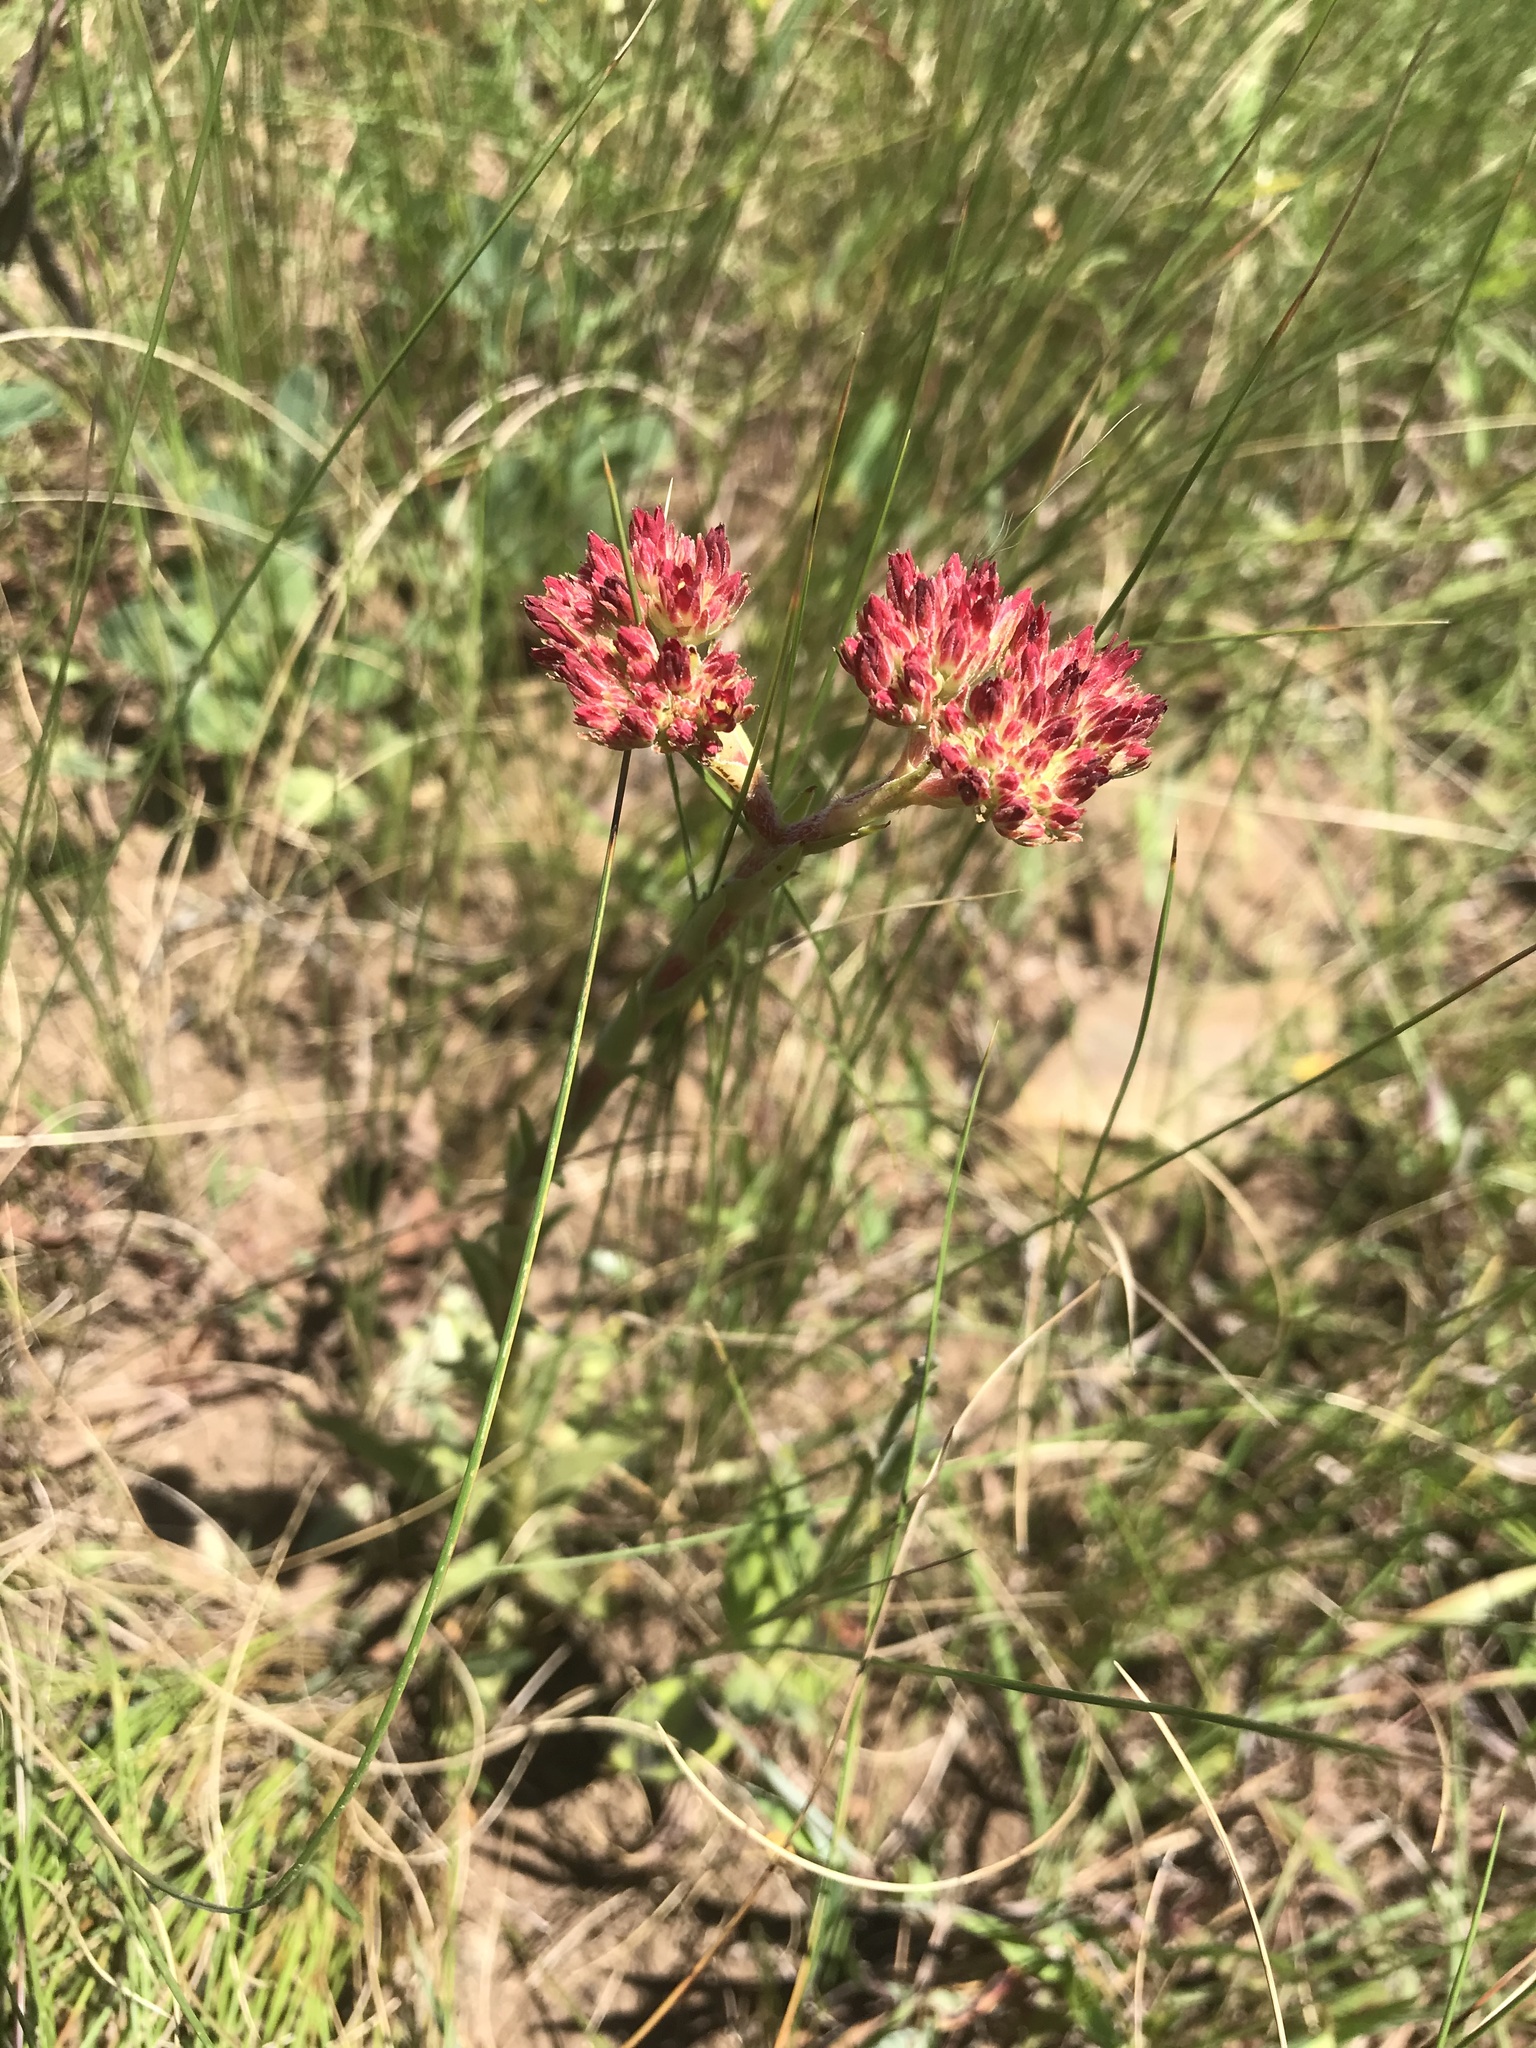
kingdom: Plantae
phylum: Tracheophyta
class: Magnoliopsida
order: Saxifragales
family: Crassulaceae
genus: Crassula
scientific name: Crassula alba
